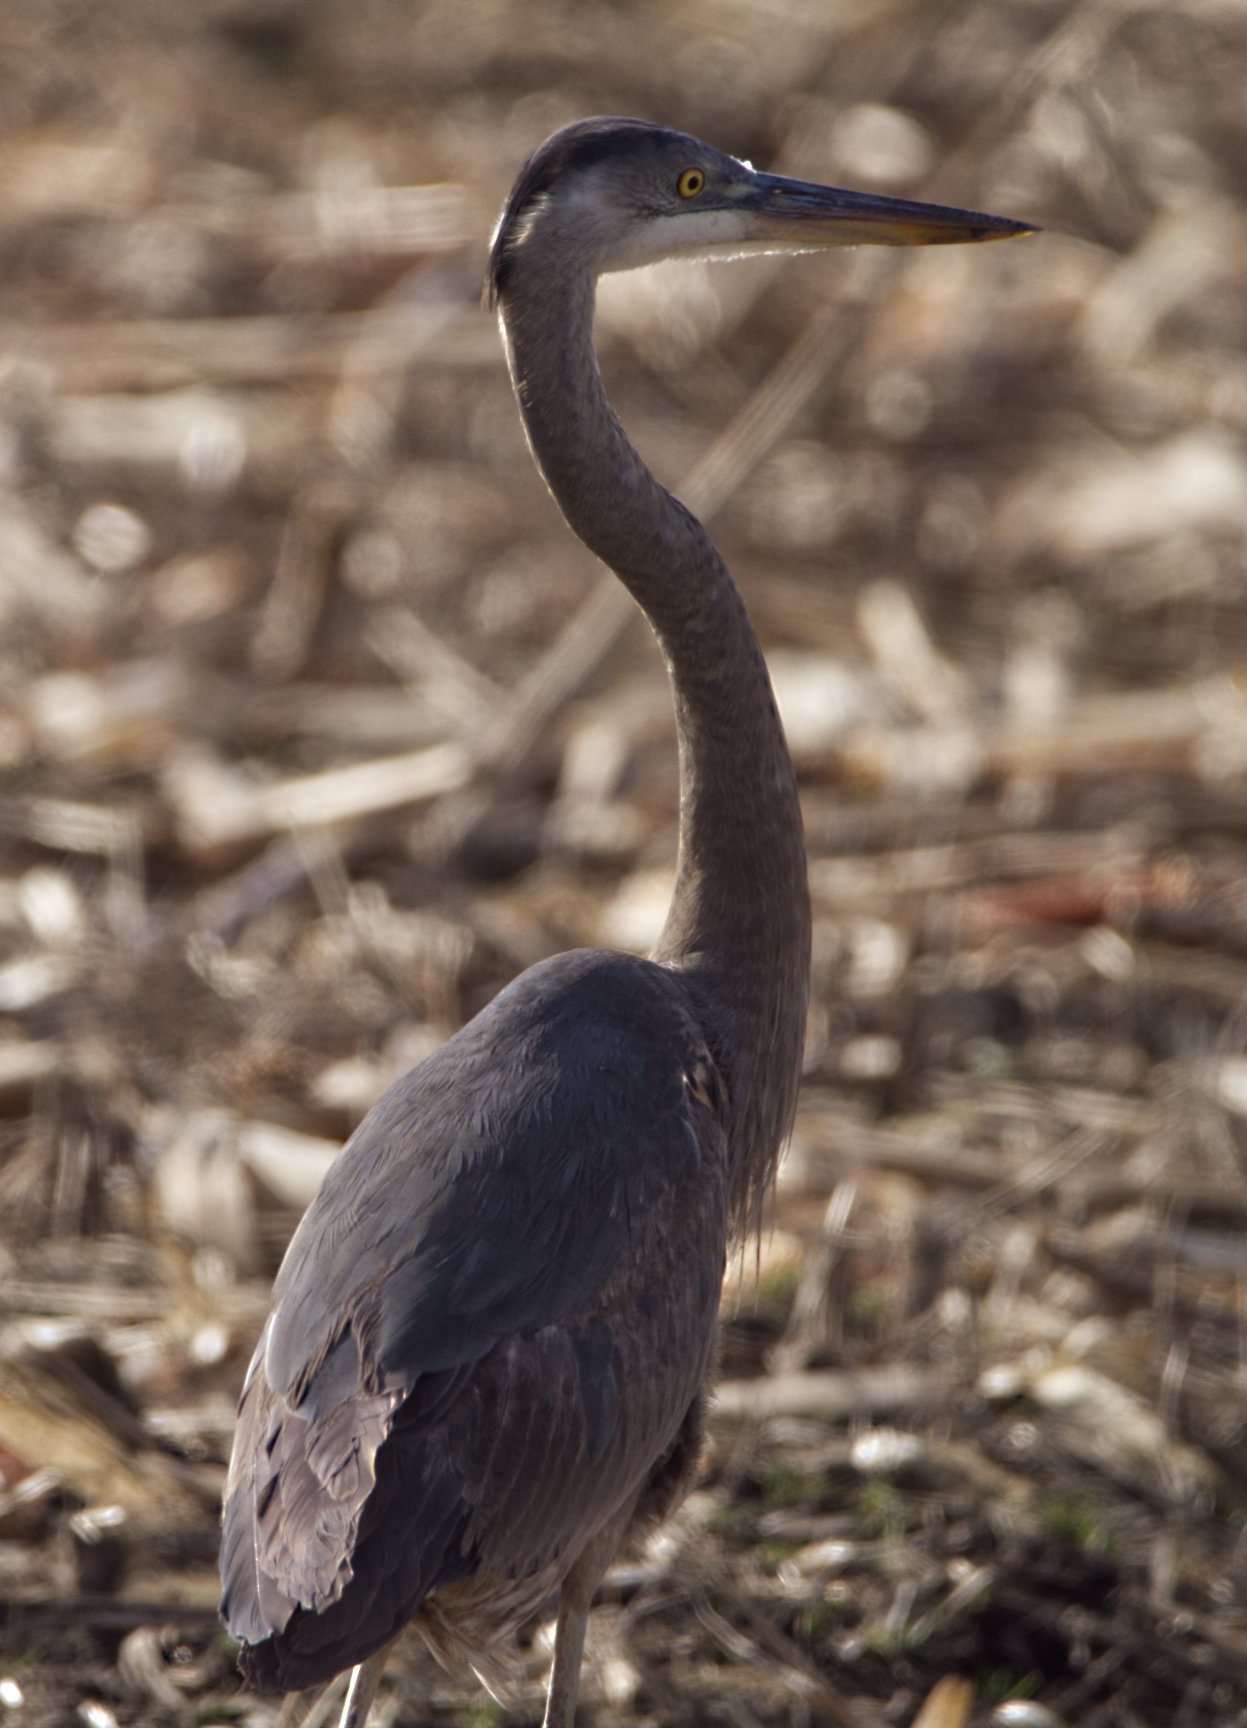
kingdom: Animalia
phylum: Chordata
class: Aves
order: Pelecaniformes
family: Ardeidae
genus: Ardea
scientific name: Ardea herodias
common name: Great blue heron
